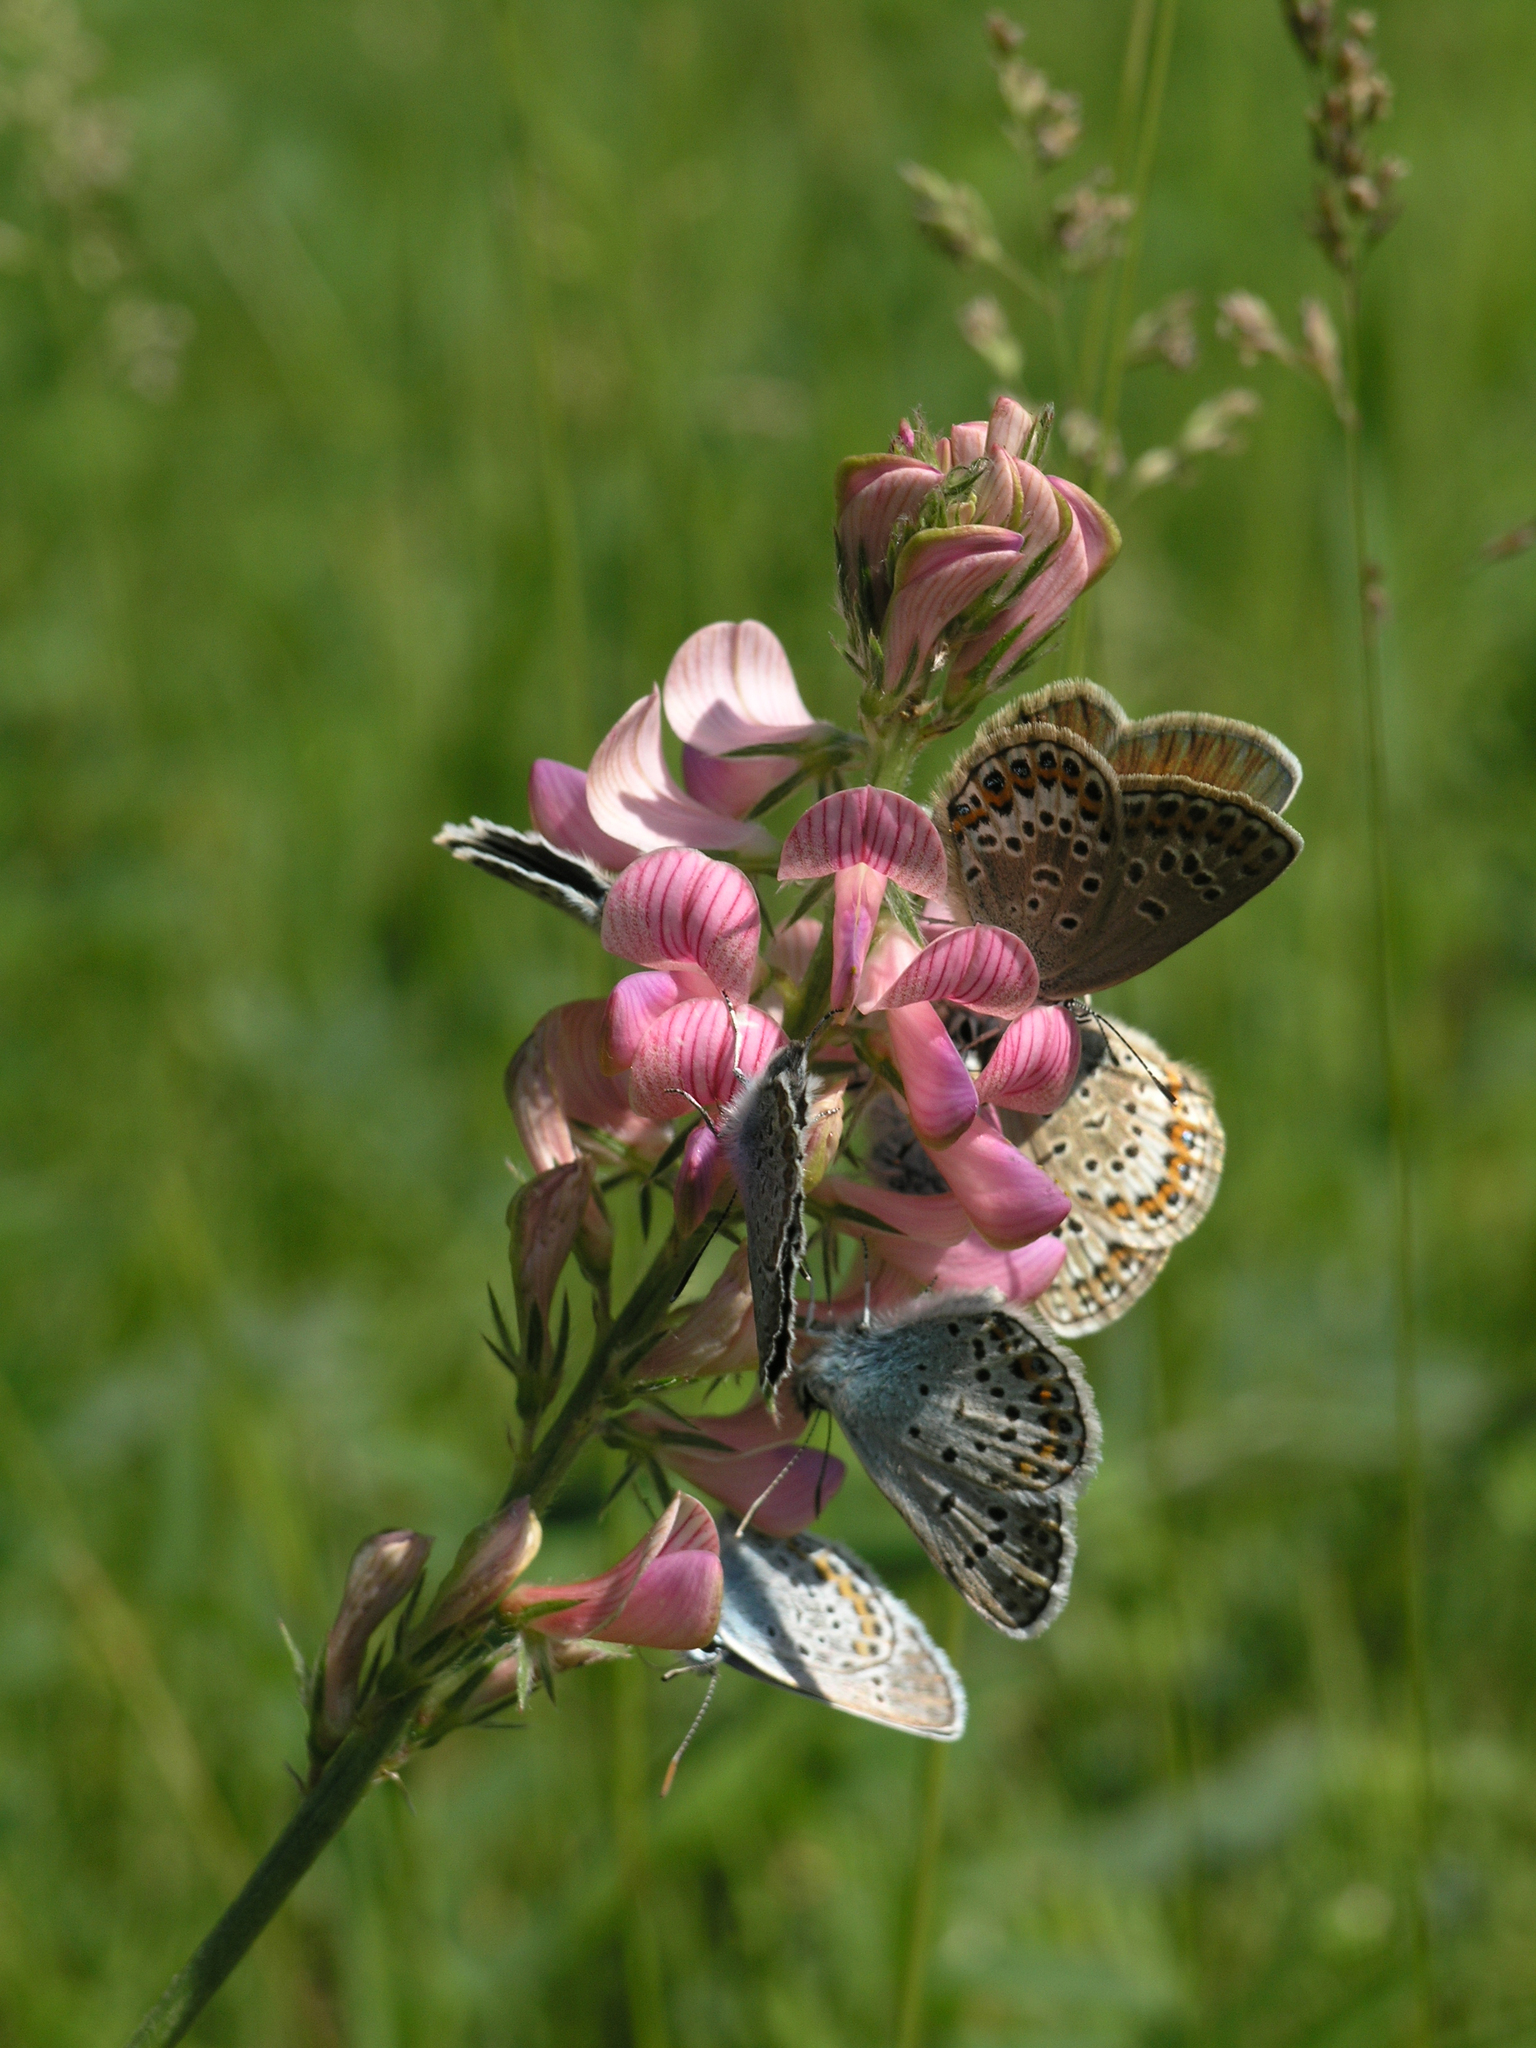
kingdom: Animalia
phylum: Arthropoda
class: Insecta
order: Lepidoptera
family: Lycaenidae
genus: Plebejus
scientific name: Plebejus argus
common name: Silver-studded blue
